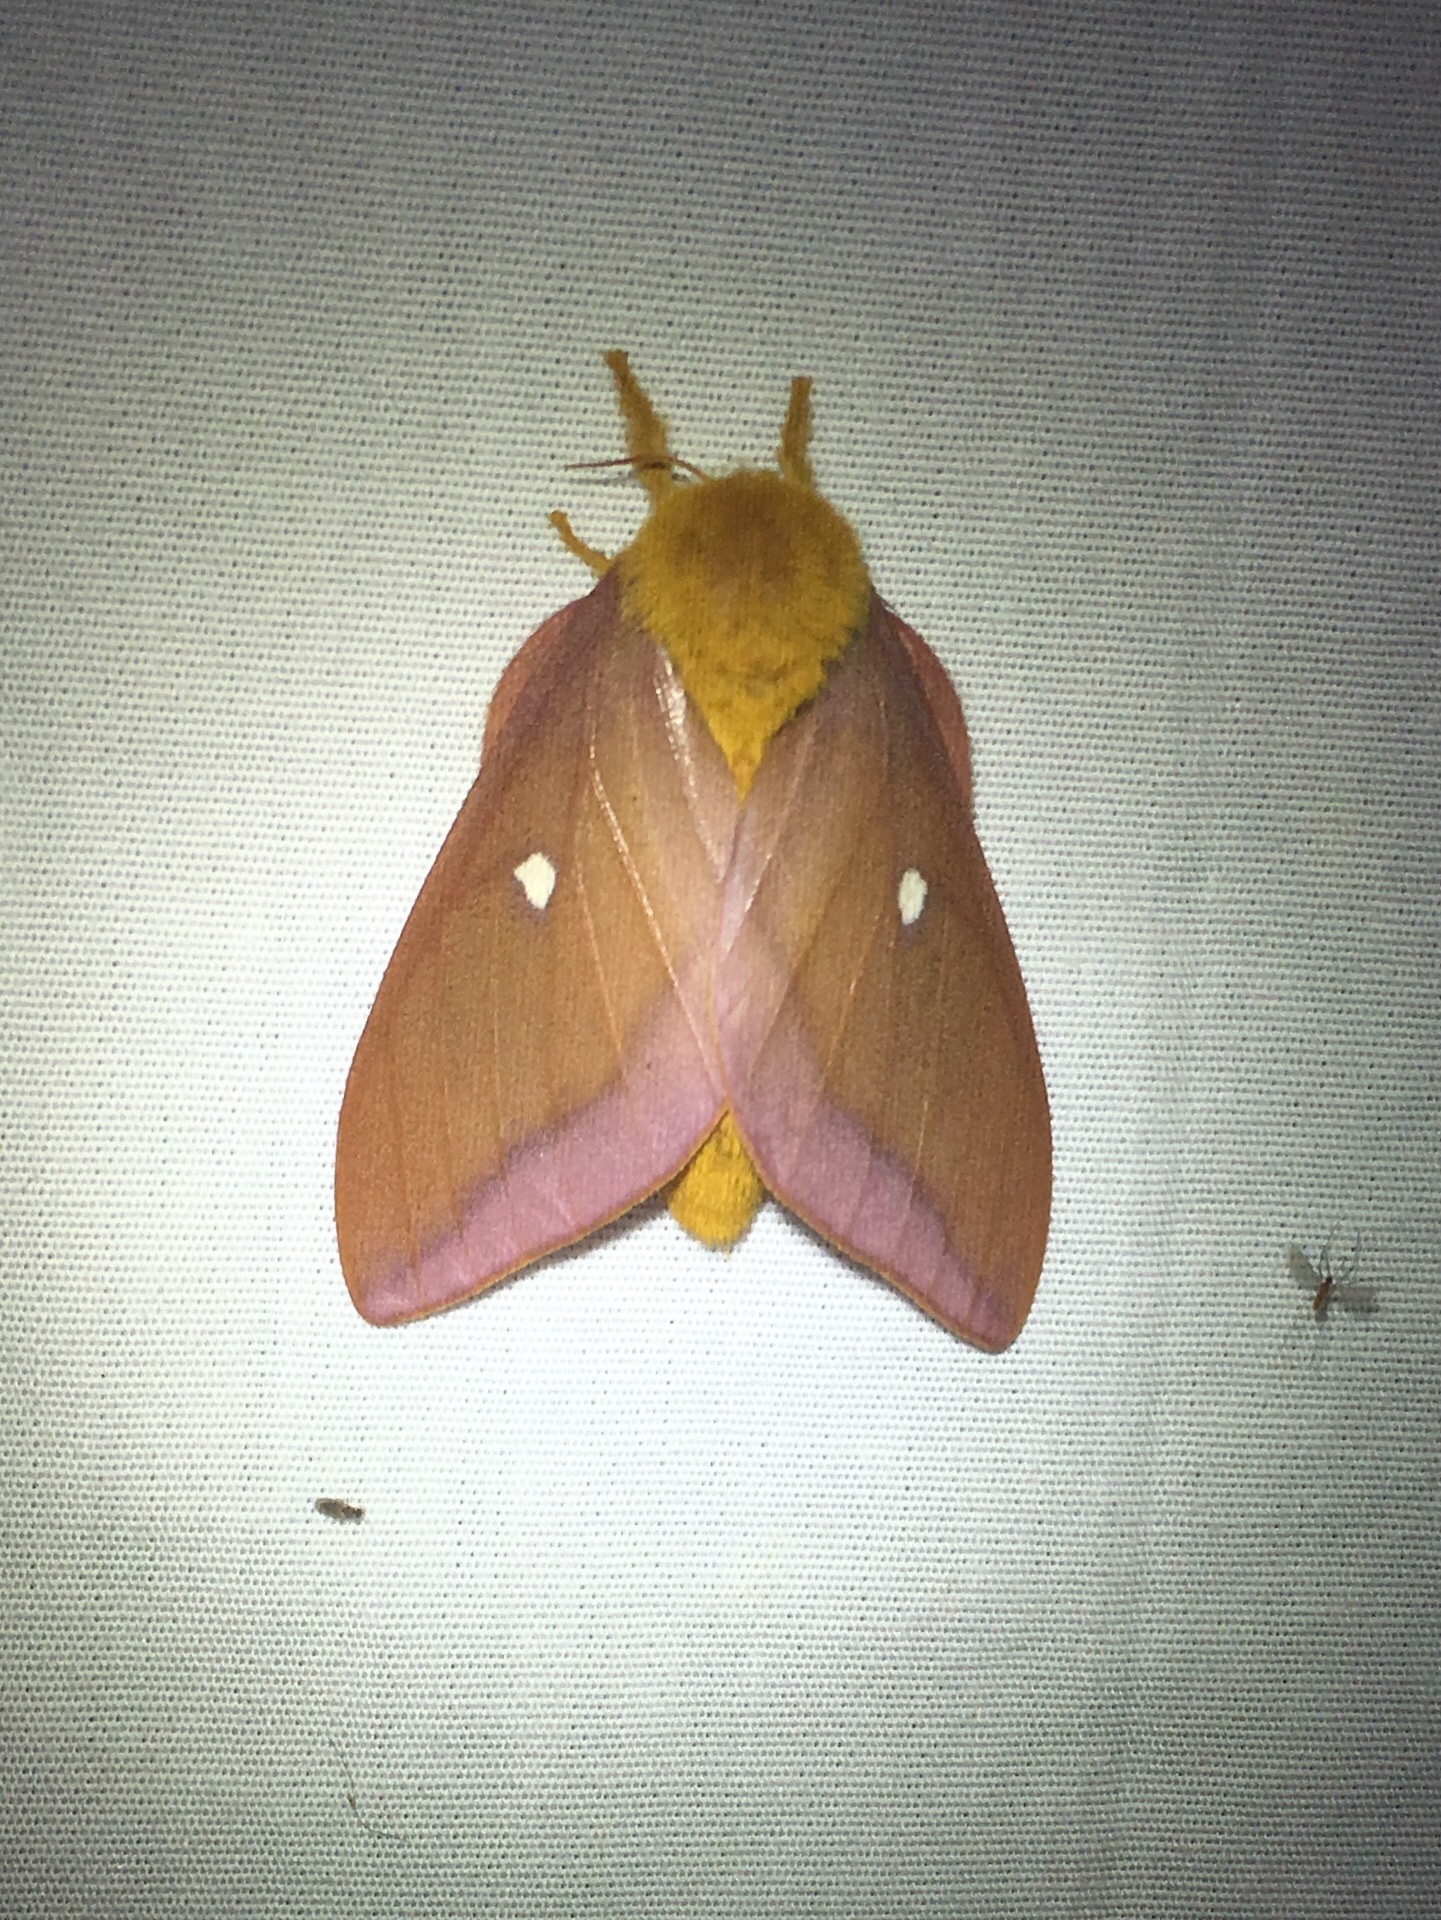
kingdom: Animalia
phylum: Arthropoda
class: Insecta
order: Lepidoptera
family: Saturniidae
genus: Anisota
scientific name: Anisota virginiensis
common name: Pink striped oakworm moth
